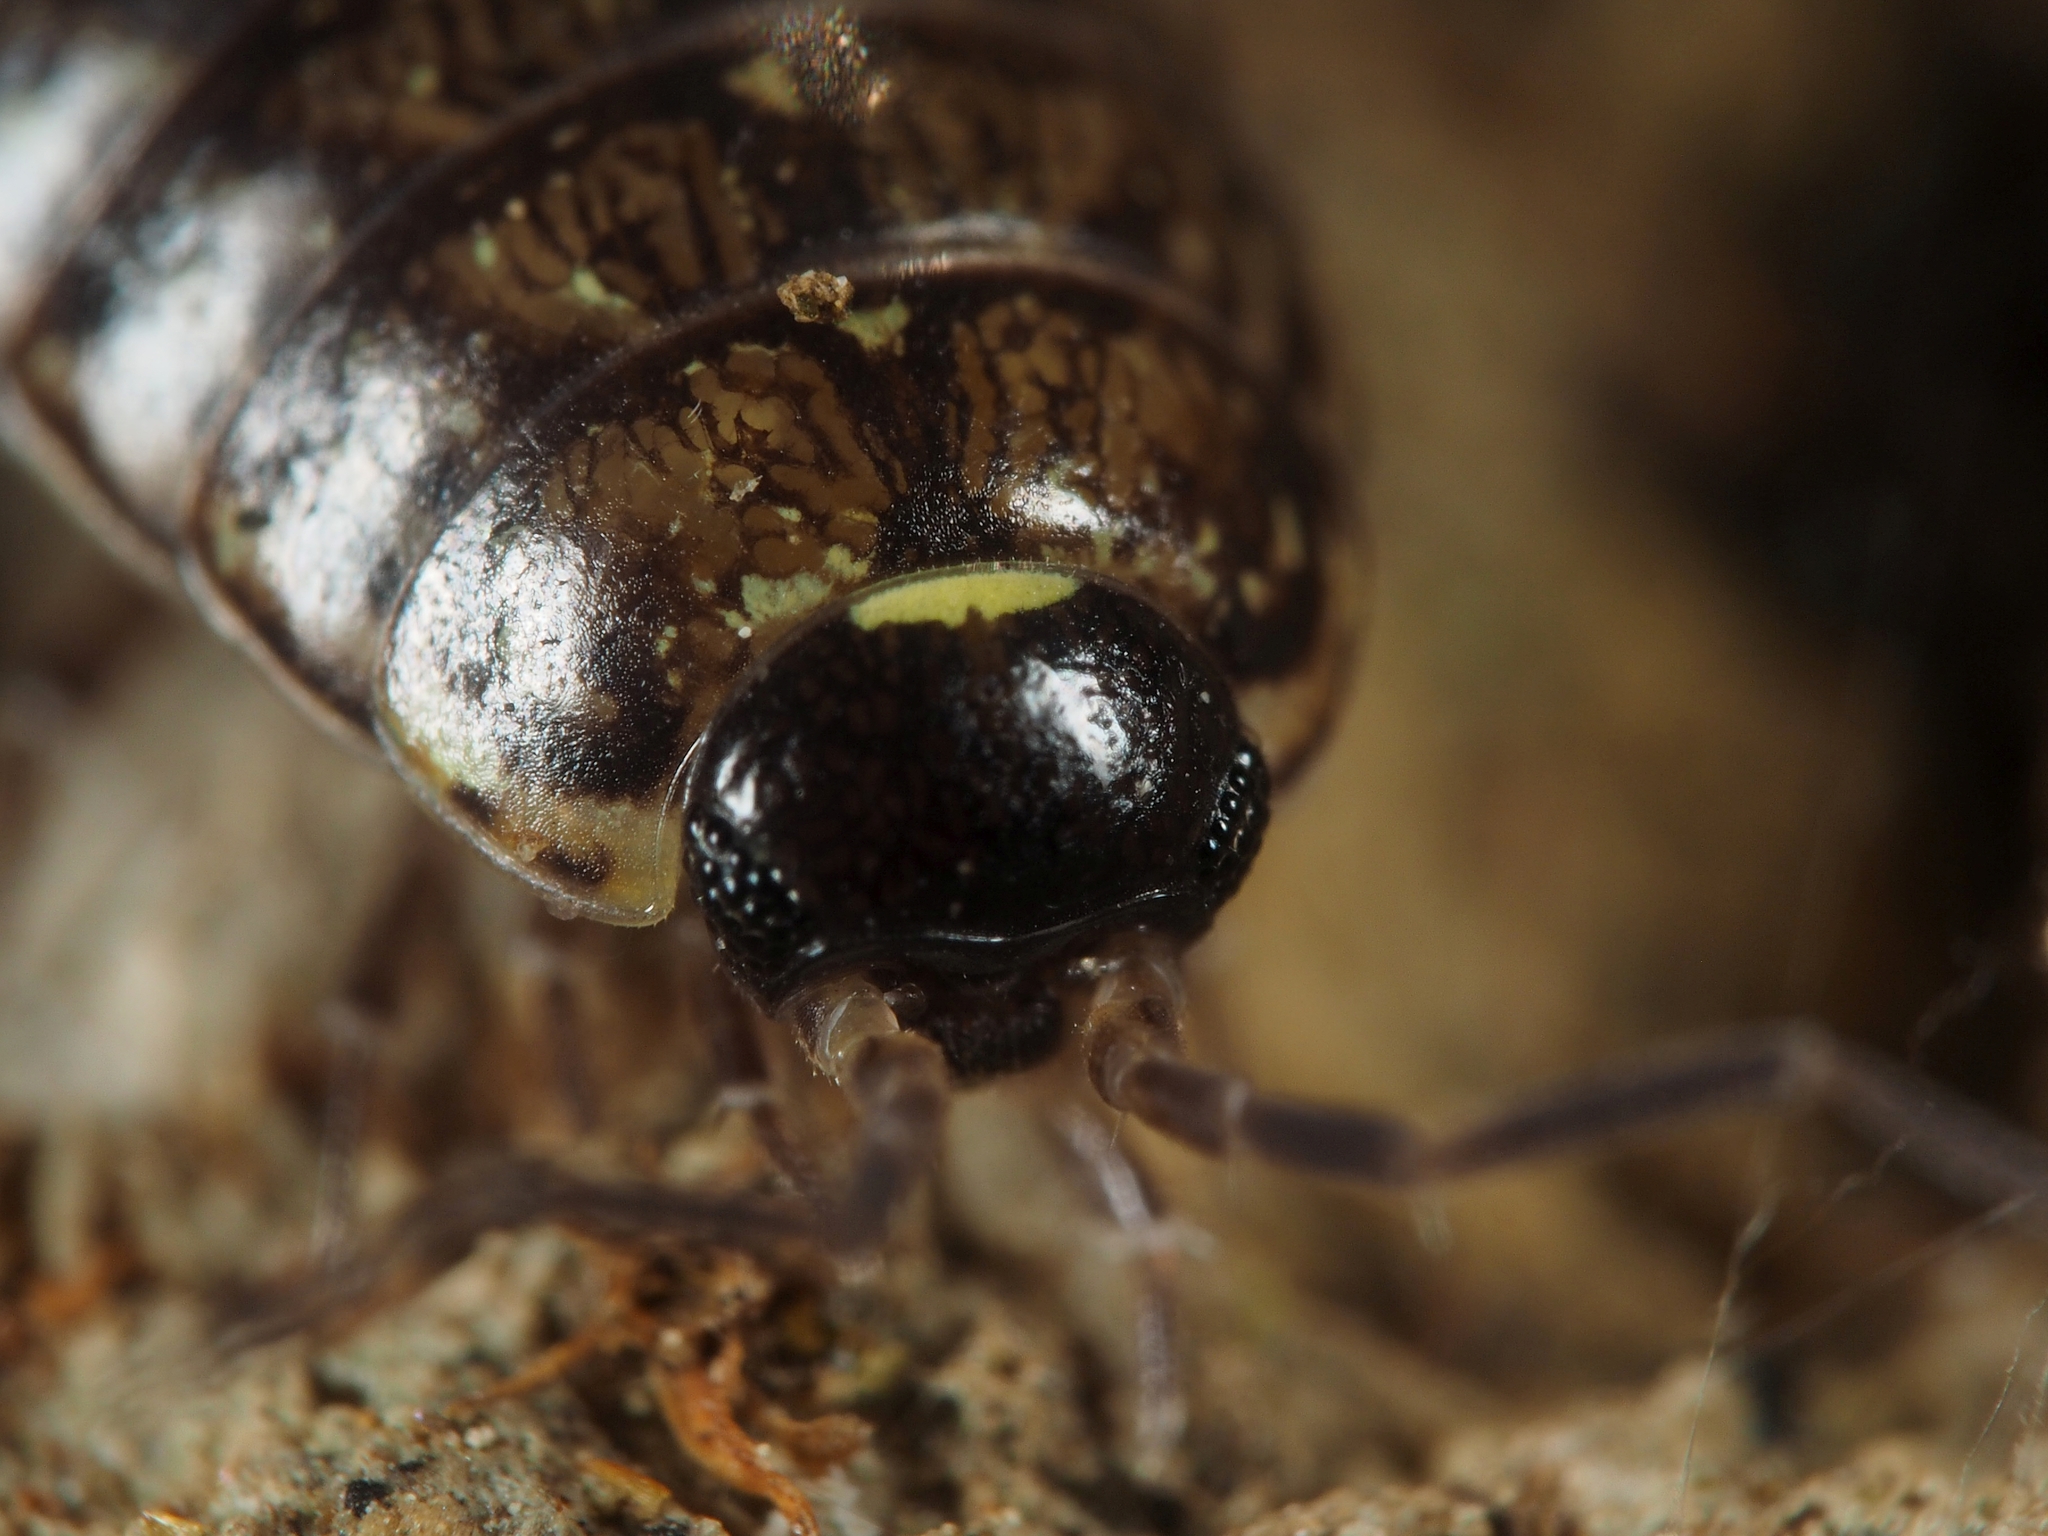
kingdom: Animalia
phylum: Arthropoda
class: Malacostraca
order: Isopoda
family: Philosciidae
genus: Philoscia
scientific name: Philoscia muscorum
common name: Common striped woodlouse
